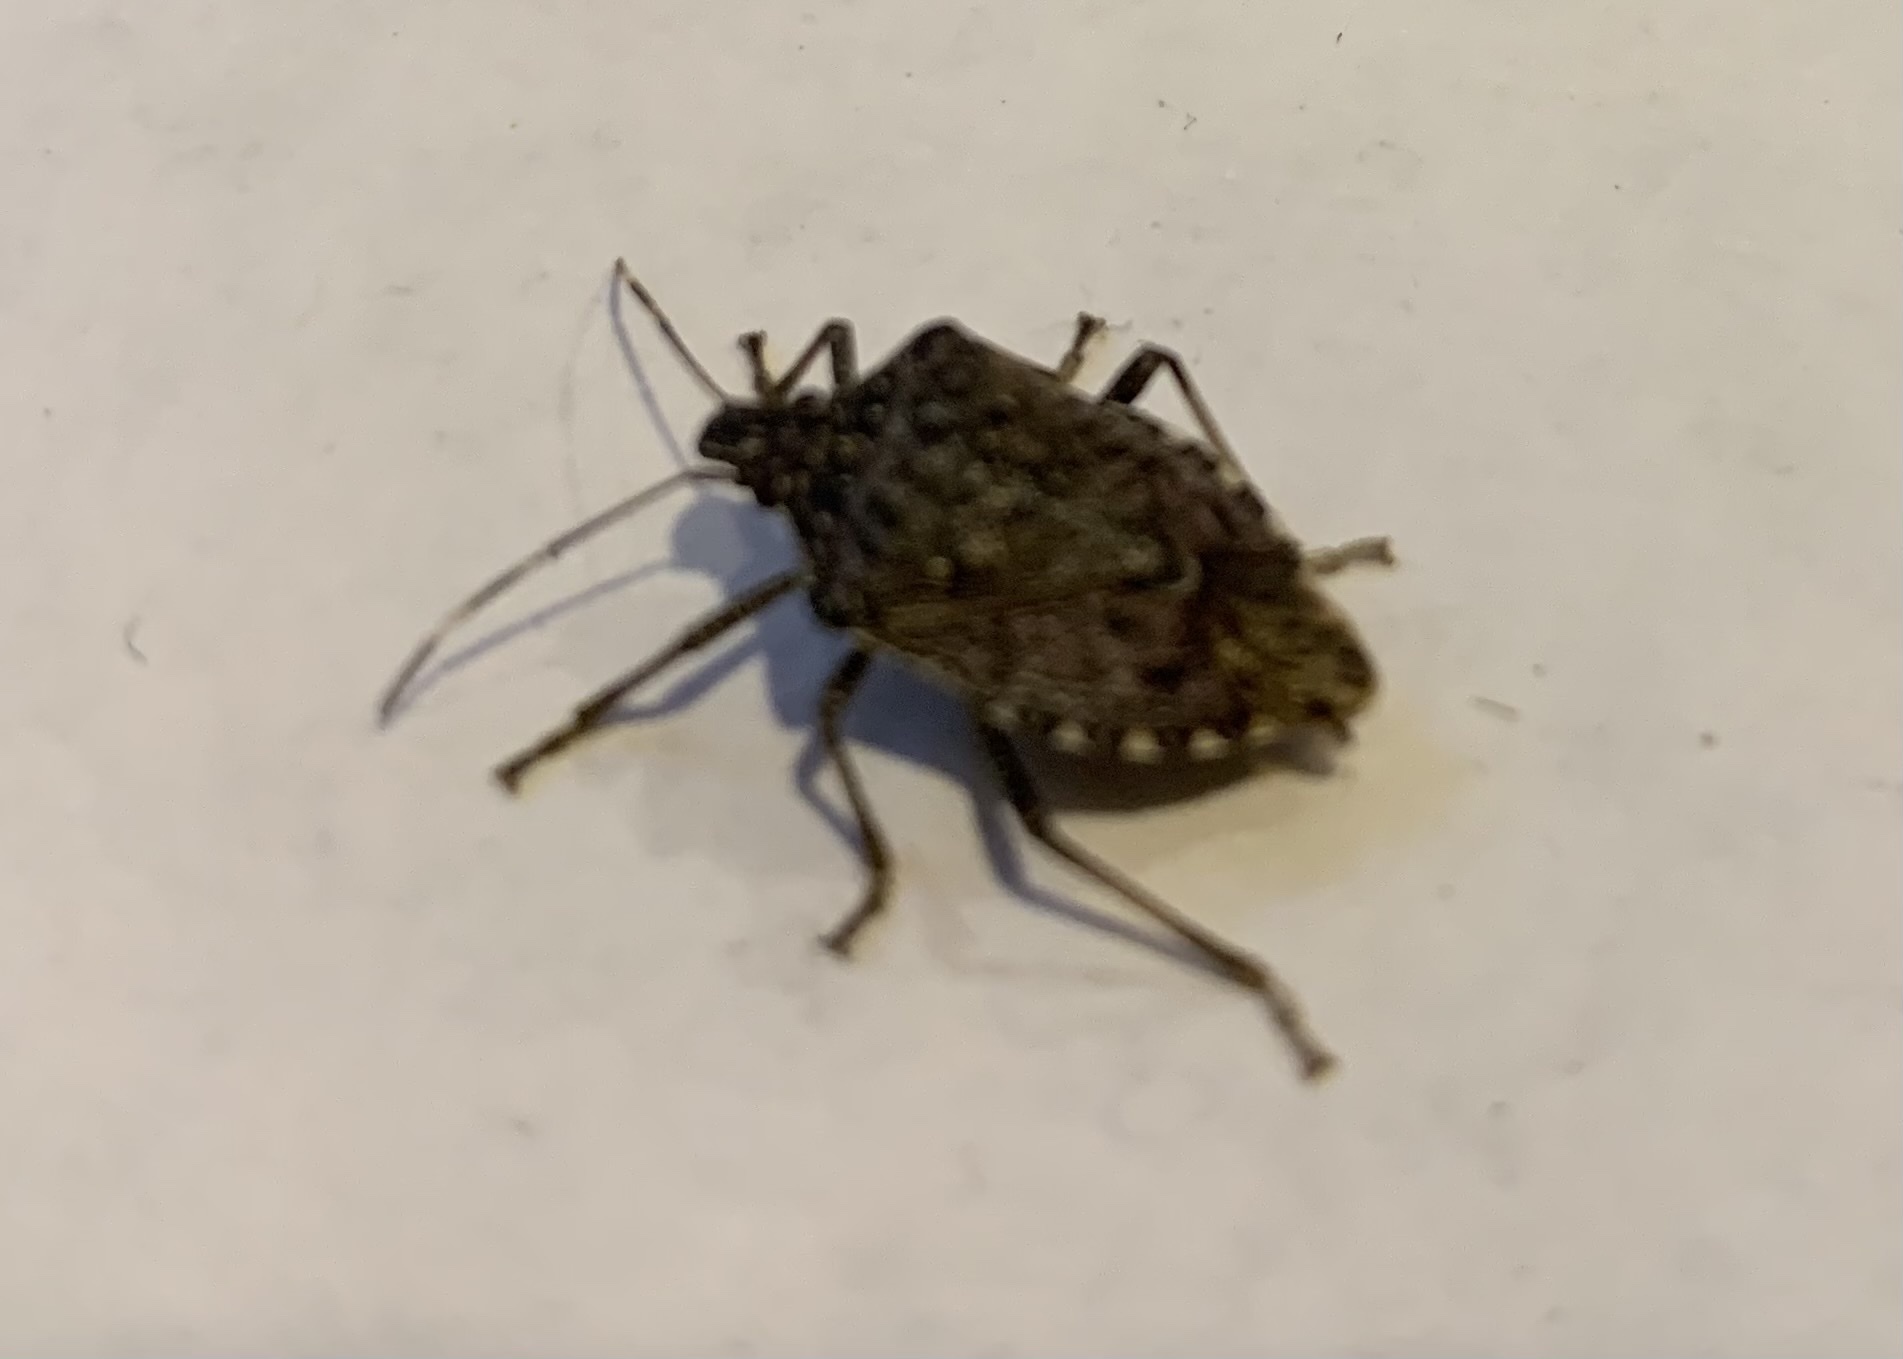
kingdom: Animalia
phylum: Arthropoda
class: Insecta
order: Hemiptera
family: Pentatomidae
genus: Halyomorpha
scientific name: Halyomorpha halys
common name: Brown marmorated stink bug
